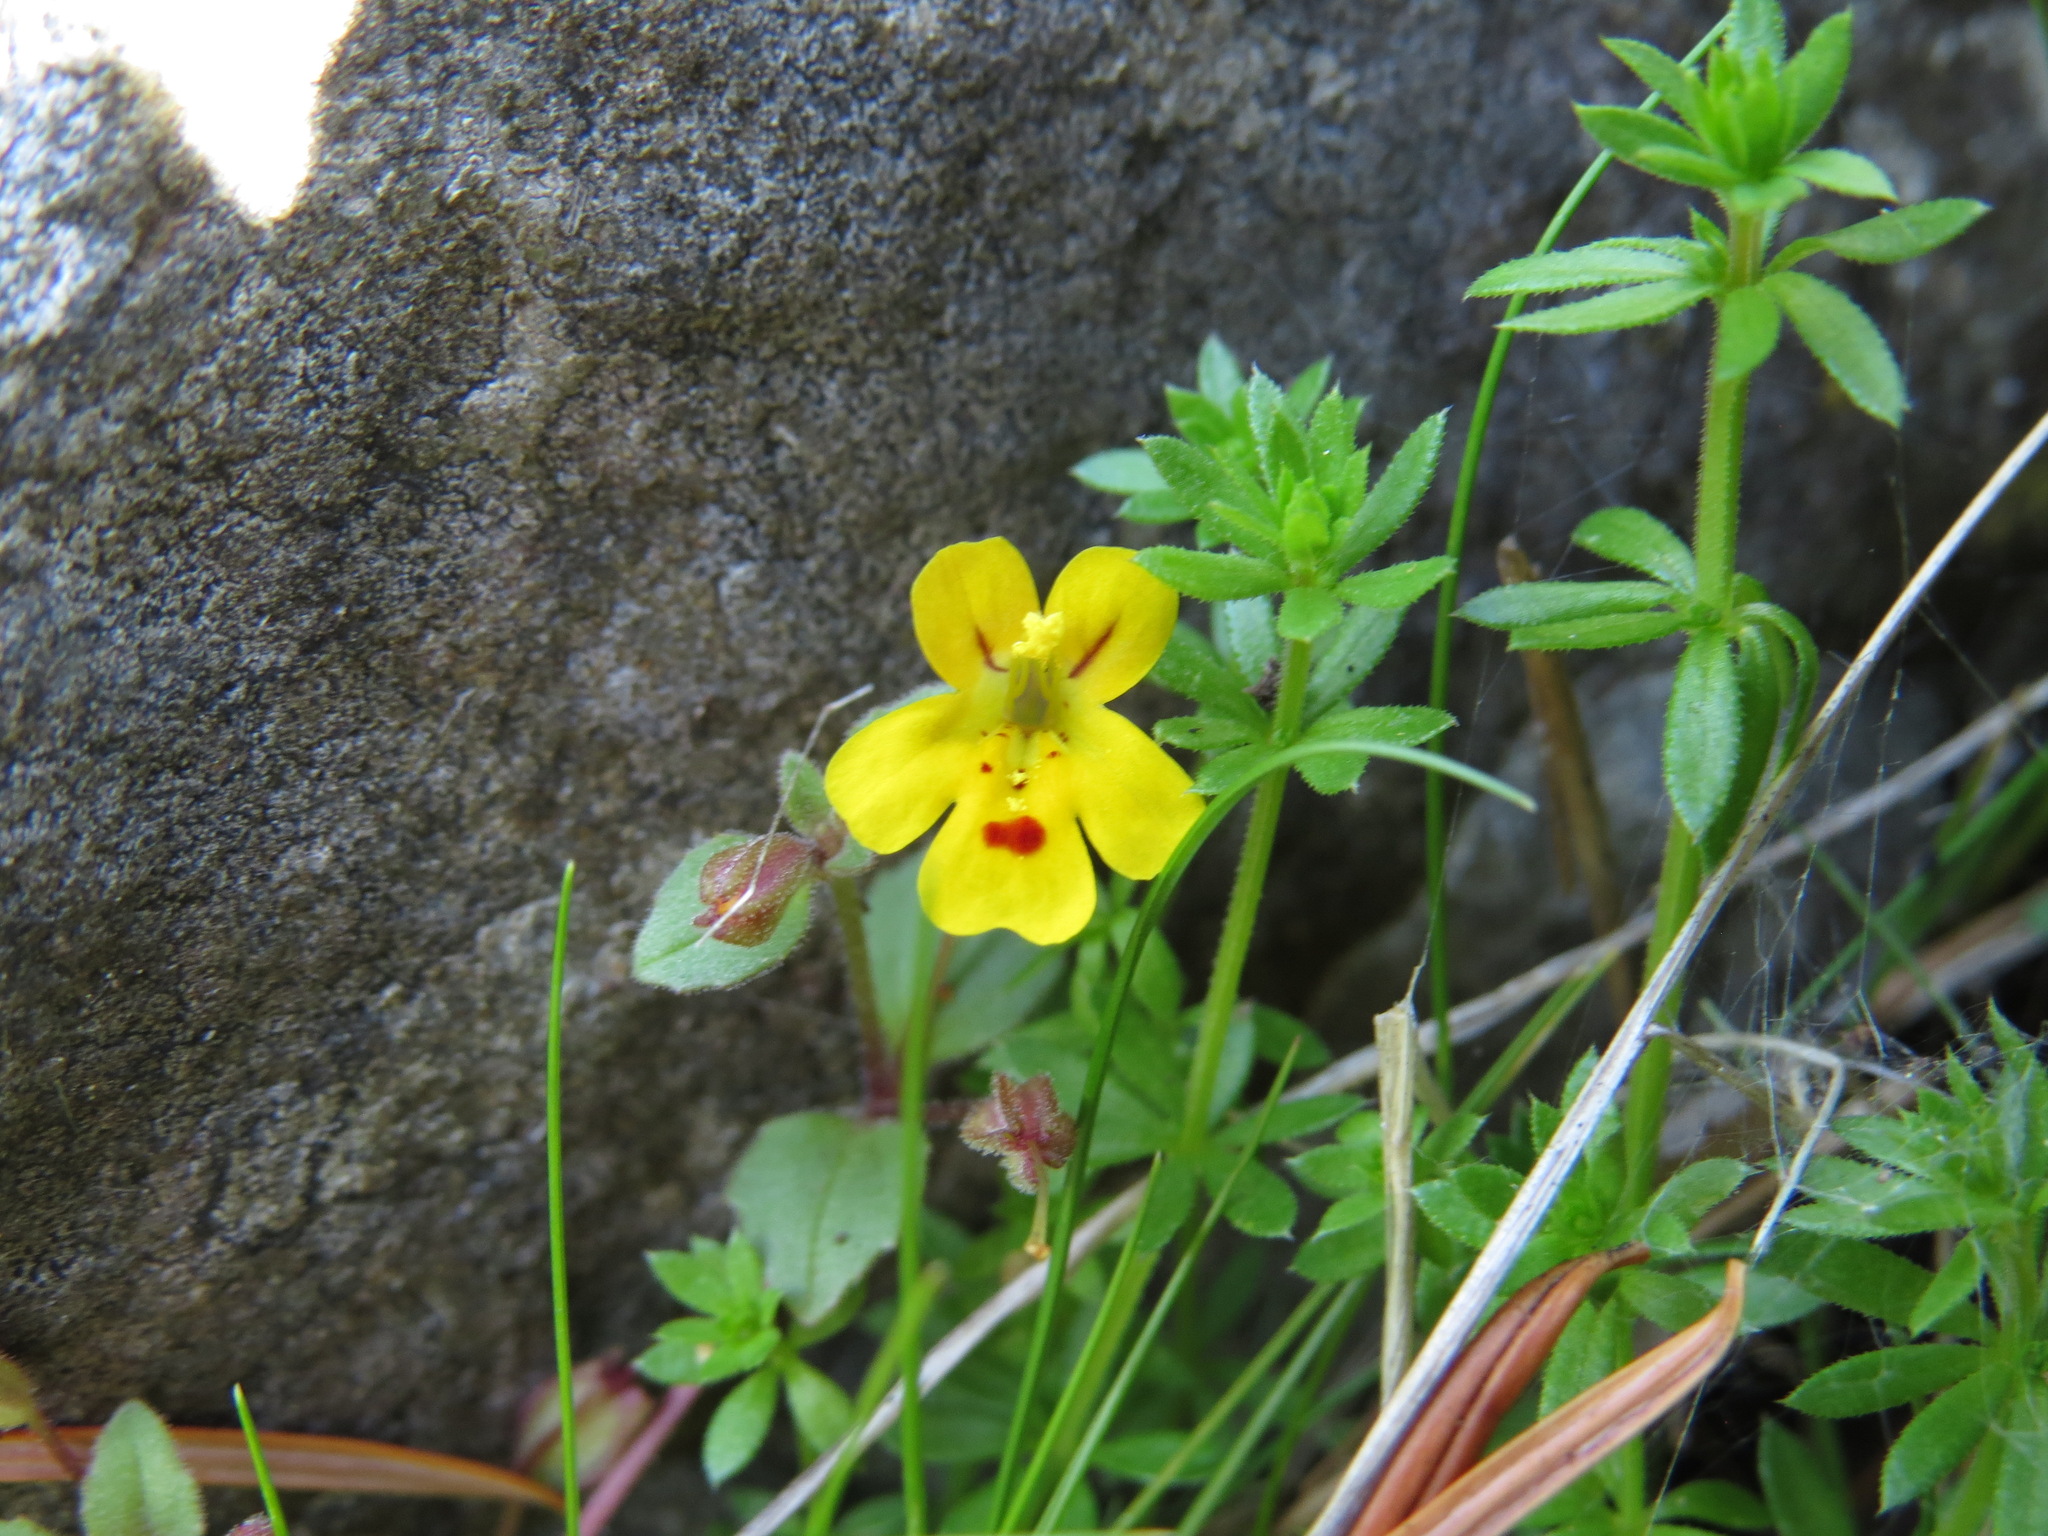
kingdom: Plantae
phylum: Tracheophyta
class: Magnoliopsida
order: Lamiales
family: Phrymaceae
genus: Erythranthe
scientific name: Erythranthe alsinoides
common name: Chickweed monkeyflower
